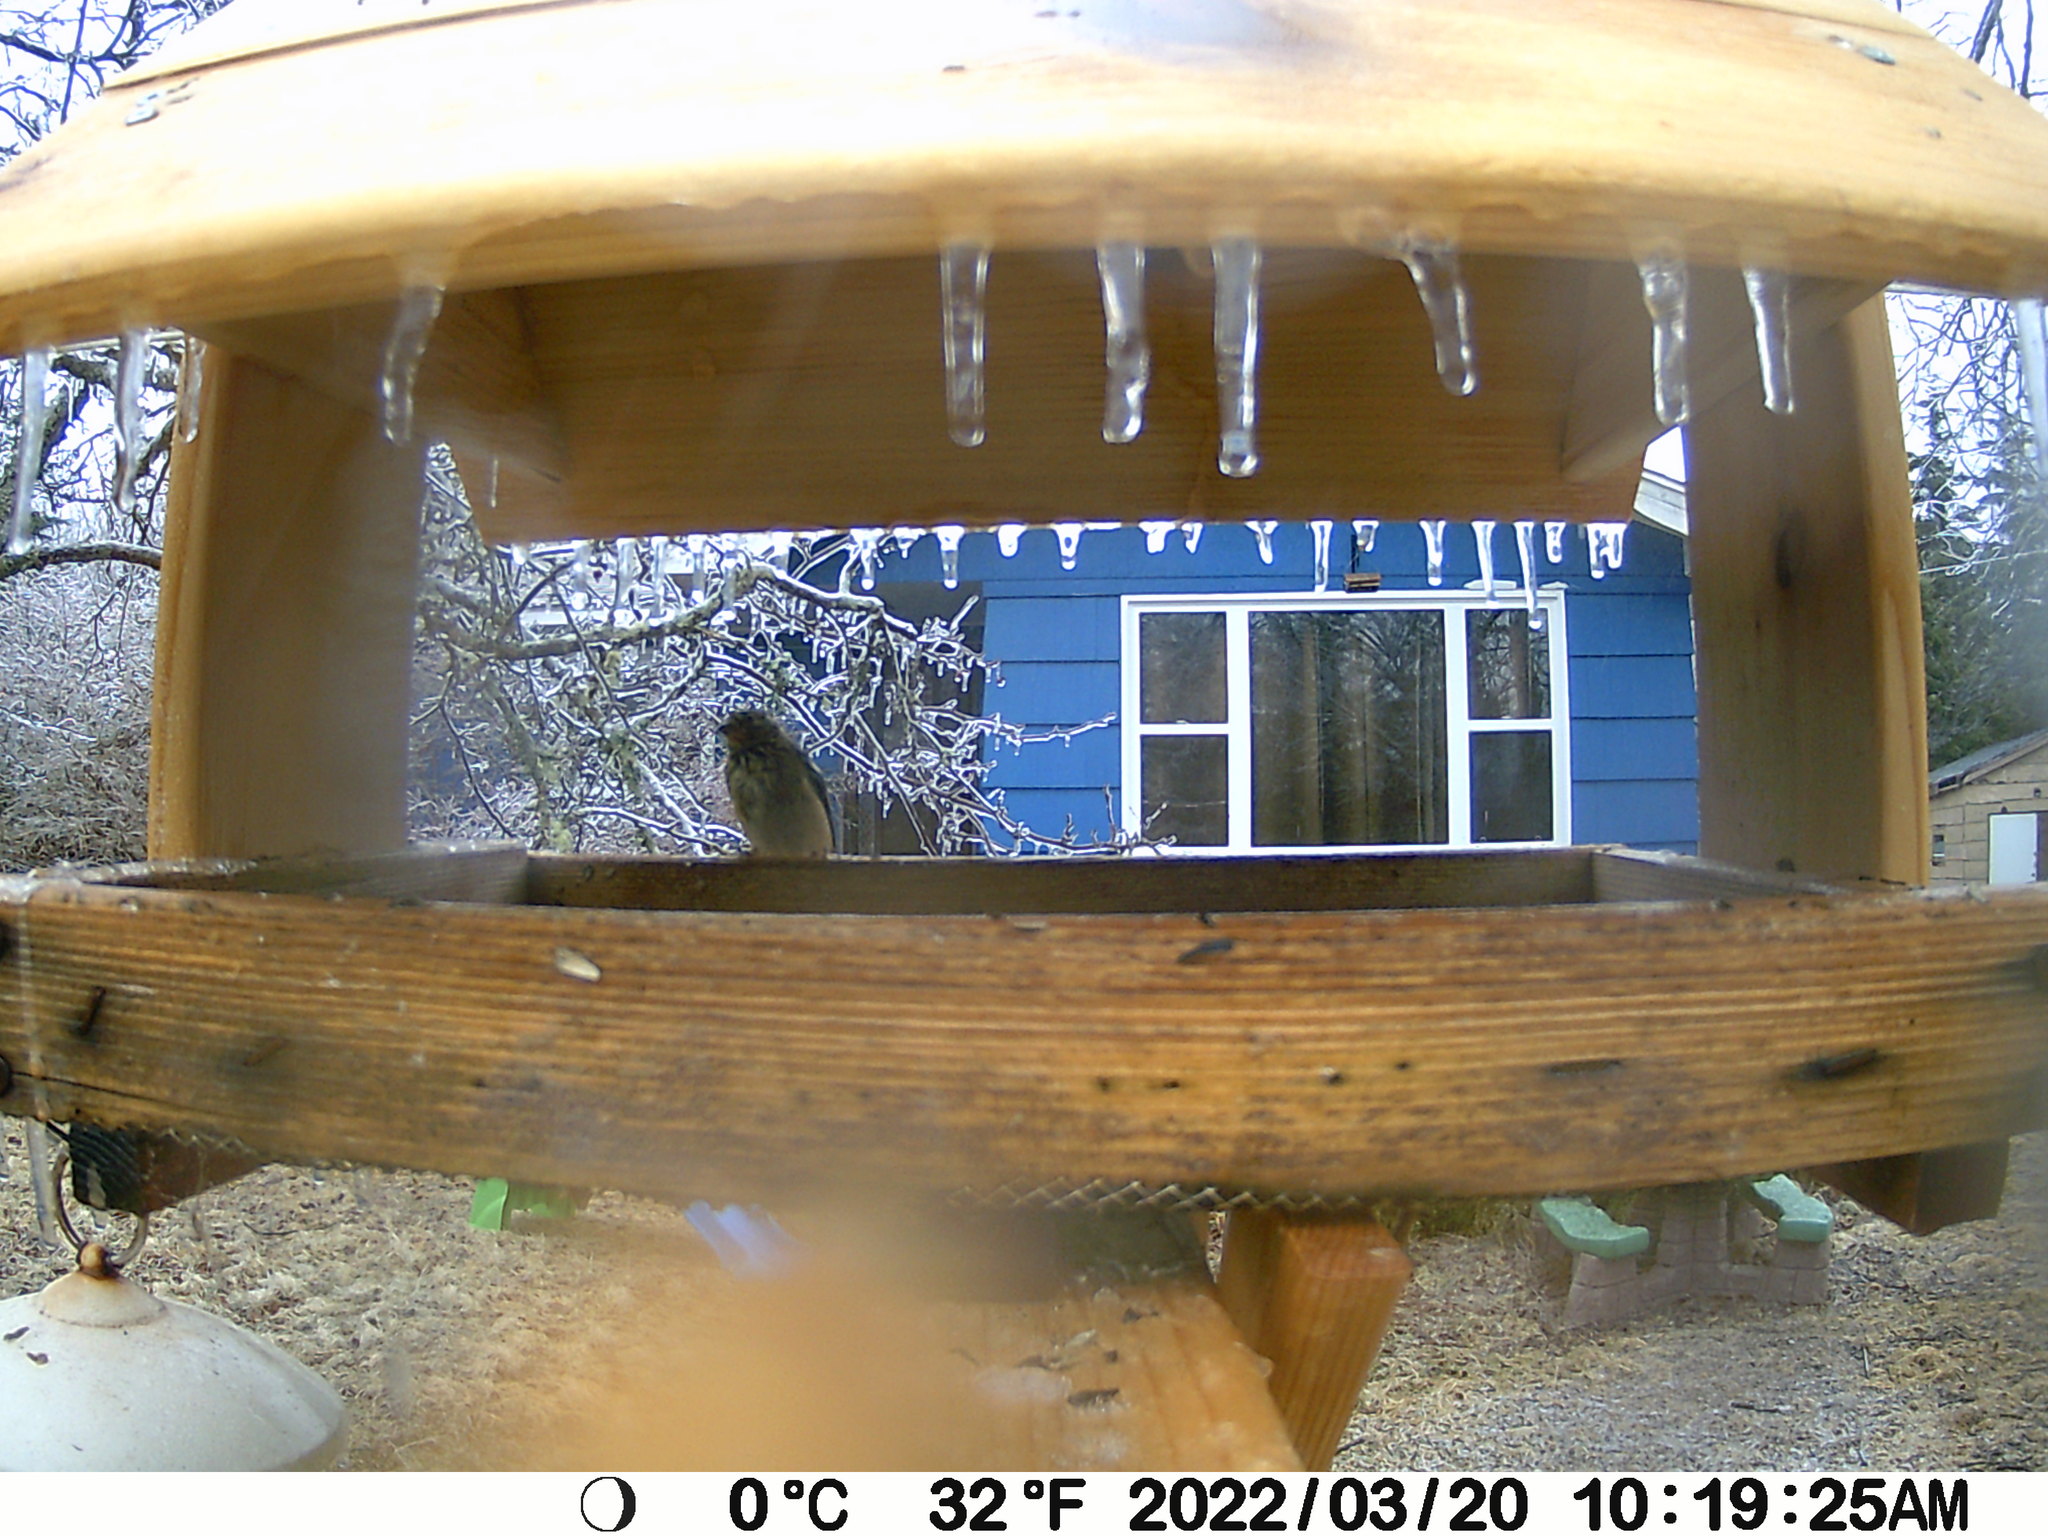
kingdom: Animalia
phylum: Chordata
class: Aves
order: Passeriformes
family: Fringillidae
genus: Spinus
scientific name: Spinus tristis
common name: American goldfinch
